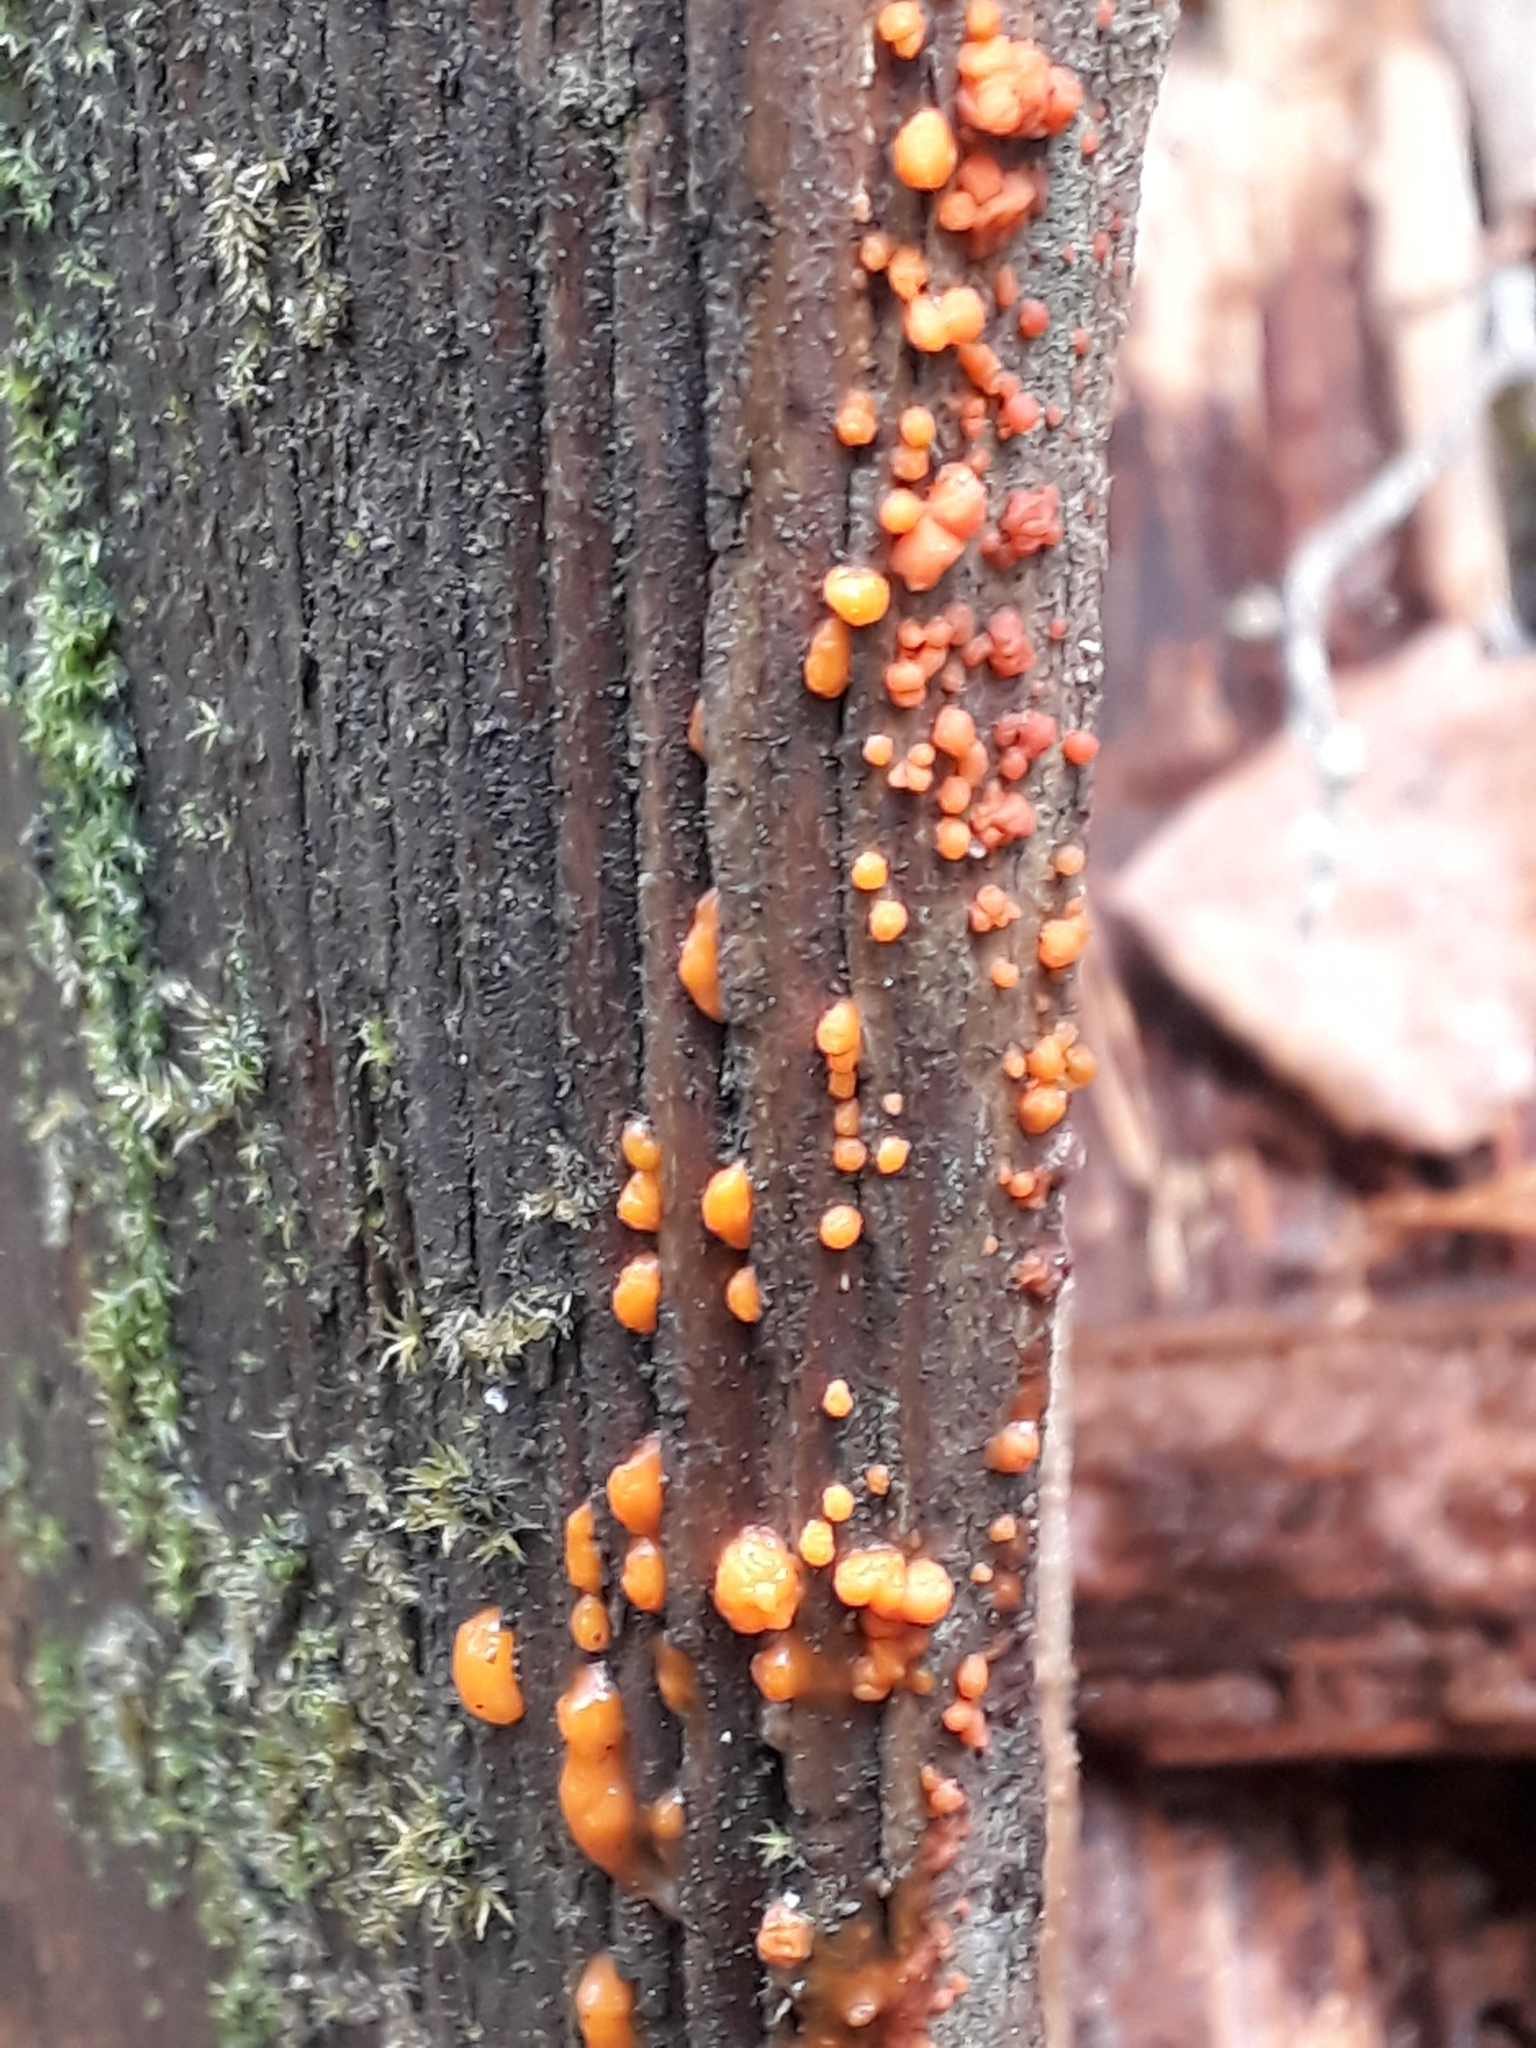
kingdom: Fungi
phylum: Basidiomycota
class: Dacrymycetes
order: Dacrymycetales
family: Dacrymycetaceae
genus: Dacrymyces
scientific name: Dacrymyces stillatus
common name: Common jelly spot
